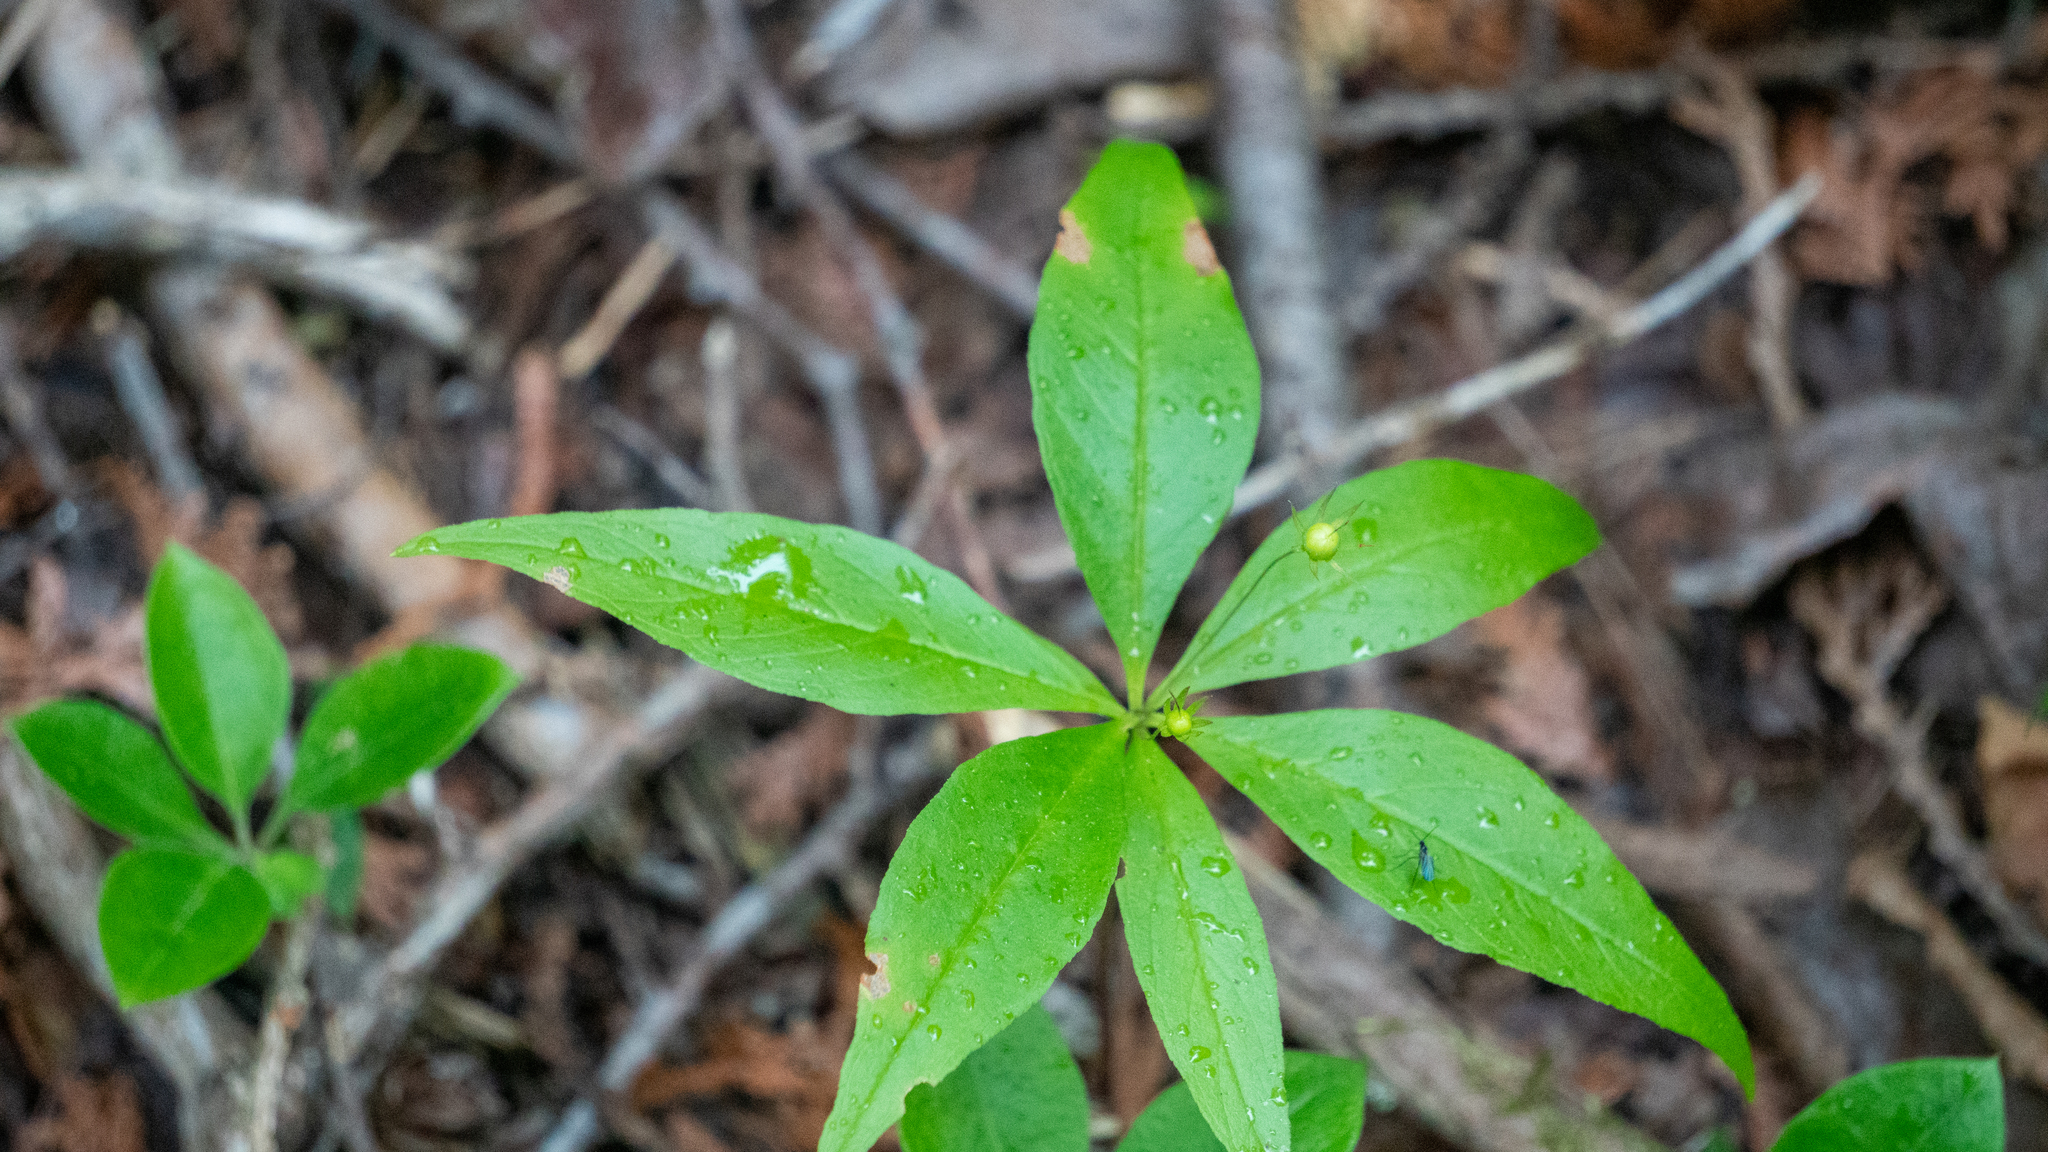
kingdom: Plantae
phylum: Tracheophyta
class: Magnoliopsida
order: Ericales
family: Primulaceae
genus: Lysimachia
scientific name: Lysimachia borealis
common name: American starflower
